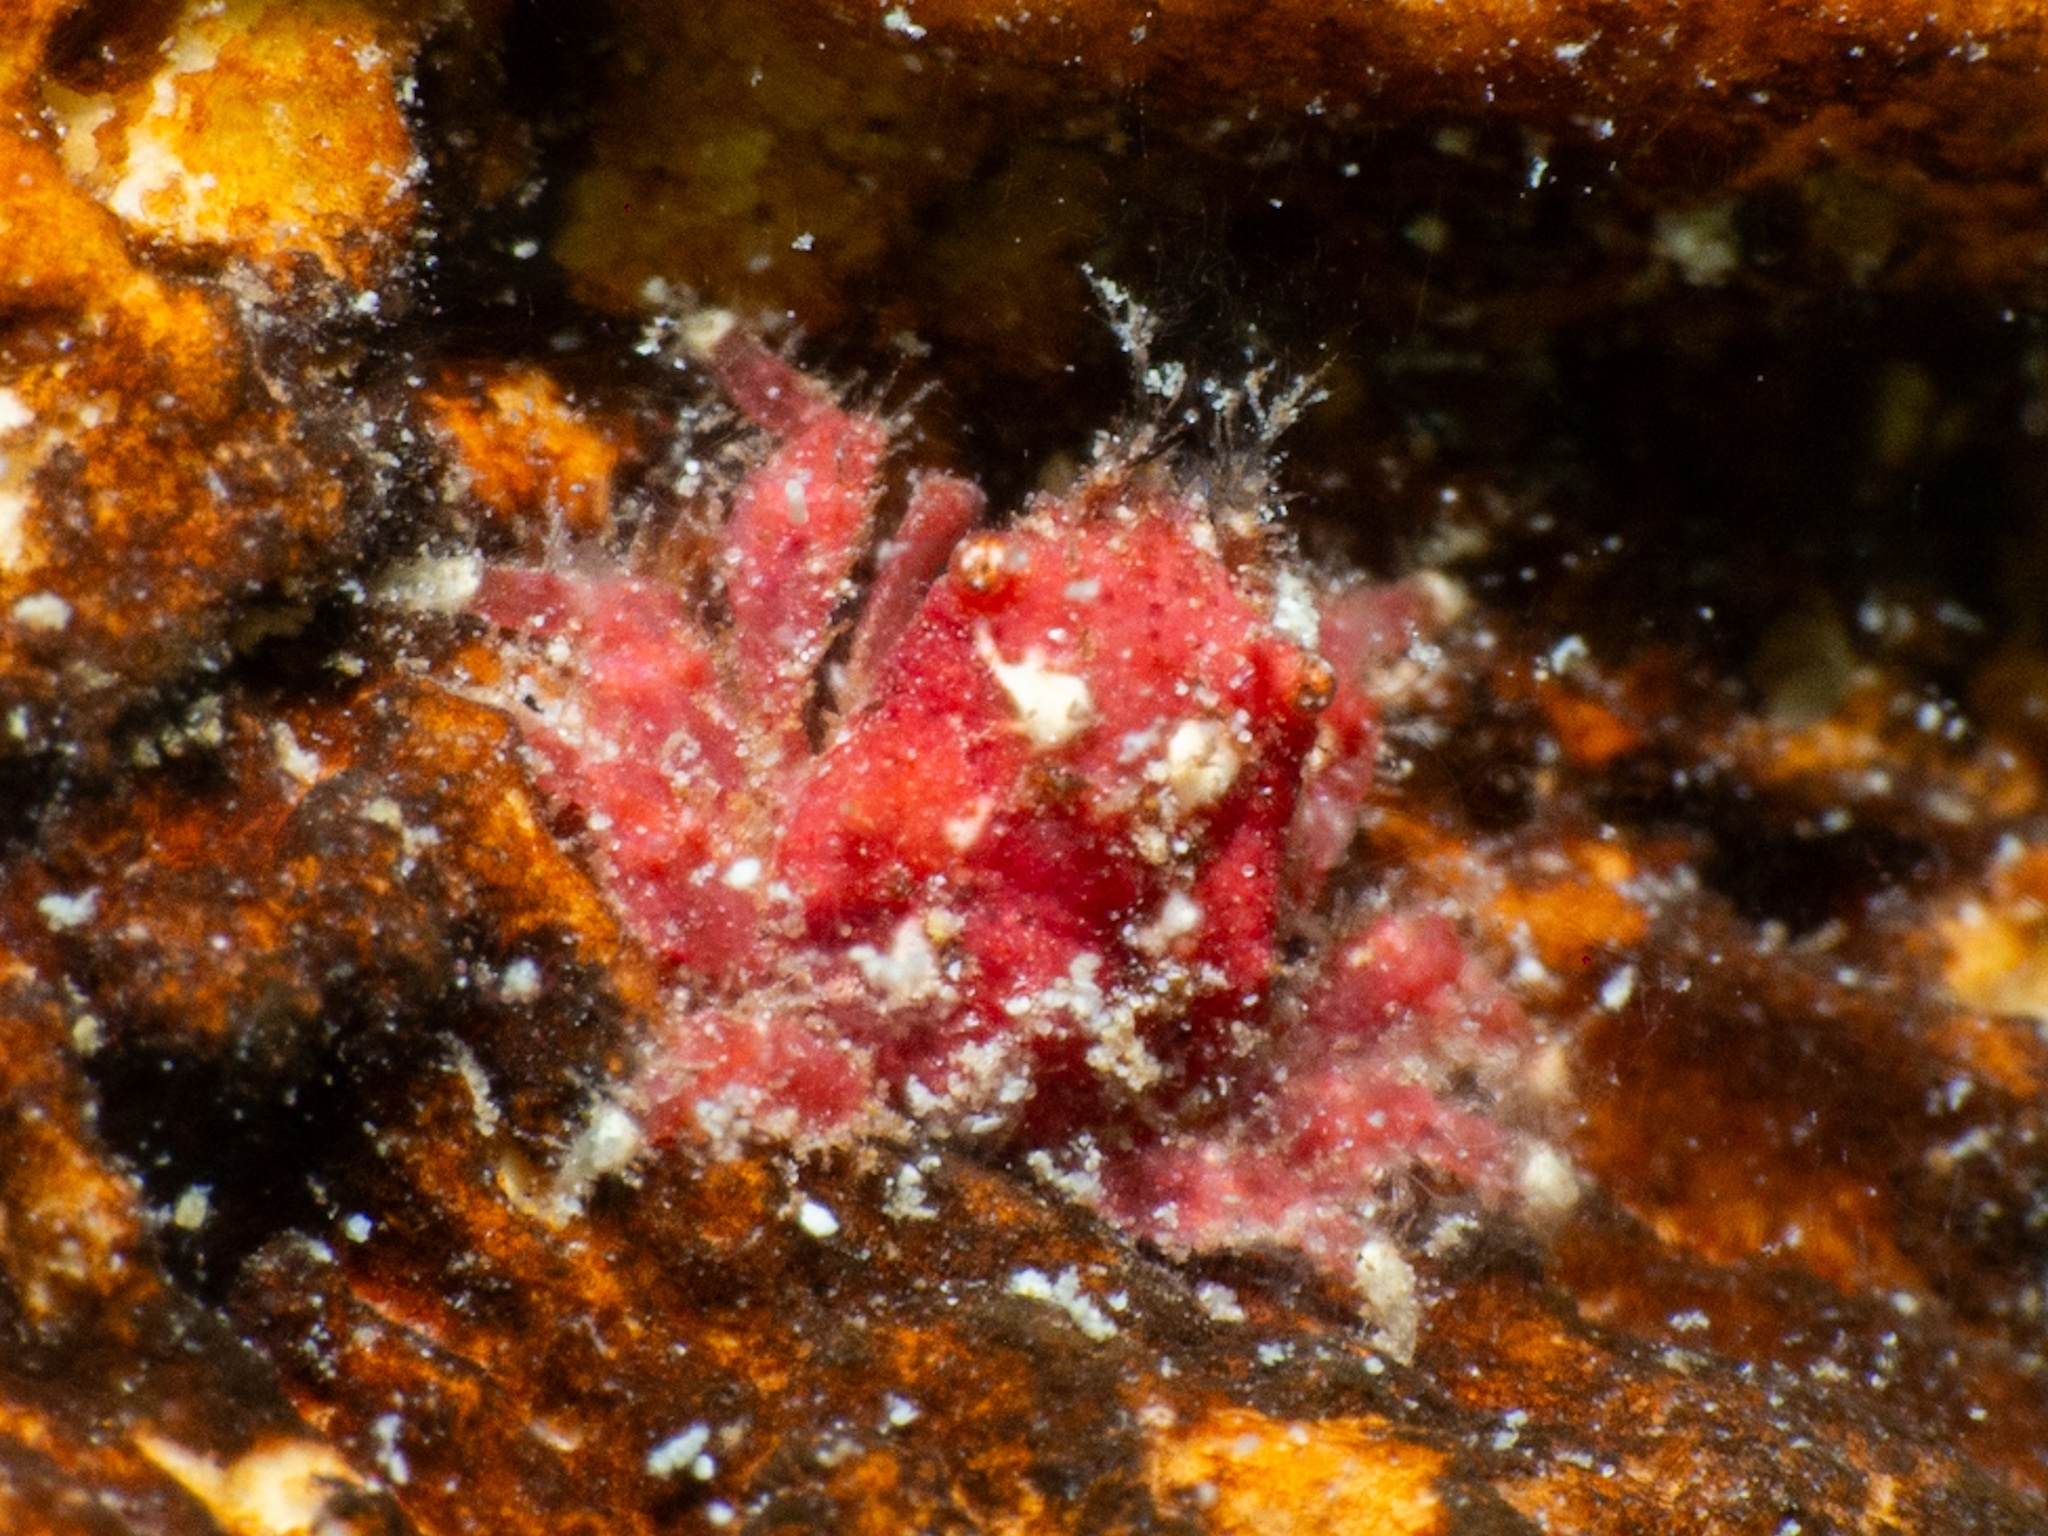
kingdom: Animalia
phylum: Arthropoda
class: Malacostraca
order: Decapoda
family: Mithracidae
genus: Thoe
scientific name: Thoe puella
